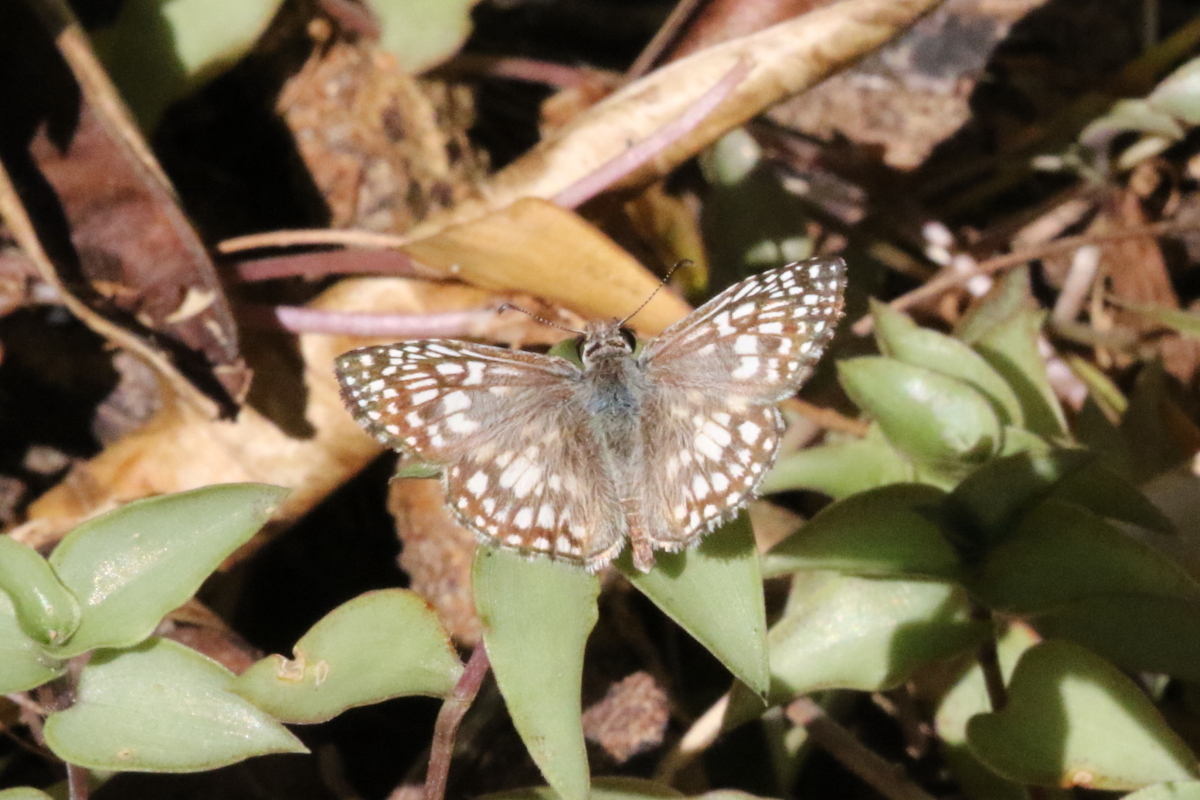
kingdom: Animalia
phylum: Arthropoda
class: Insecta
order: Lepidoptera
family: Hesperiidae
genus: Pyrgus
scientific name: Pyrgus oileus
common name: Tropical checkered-skipper
